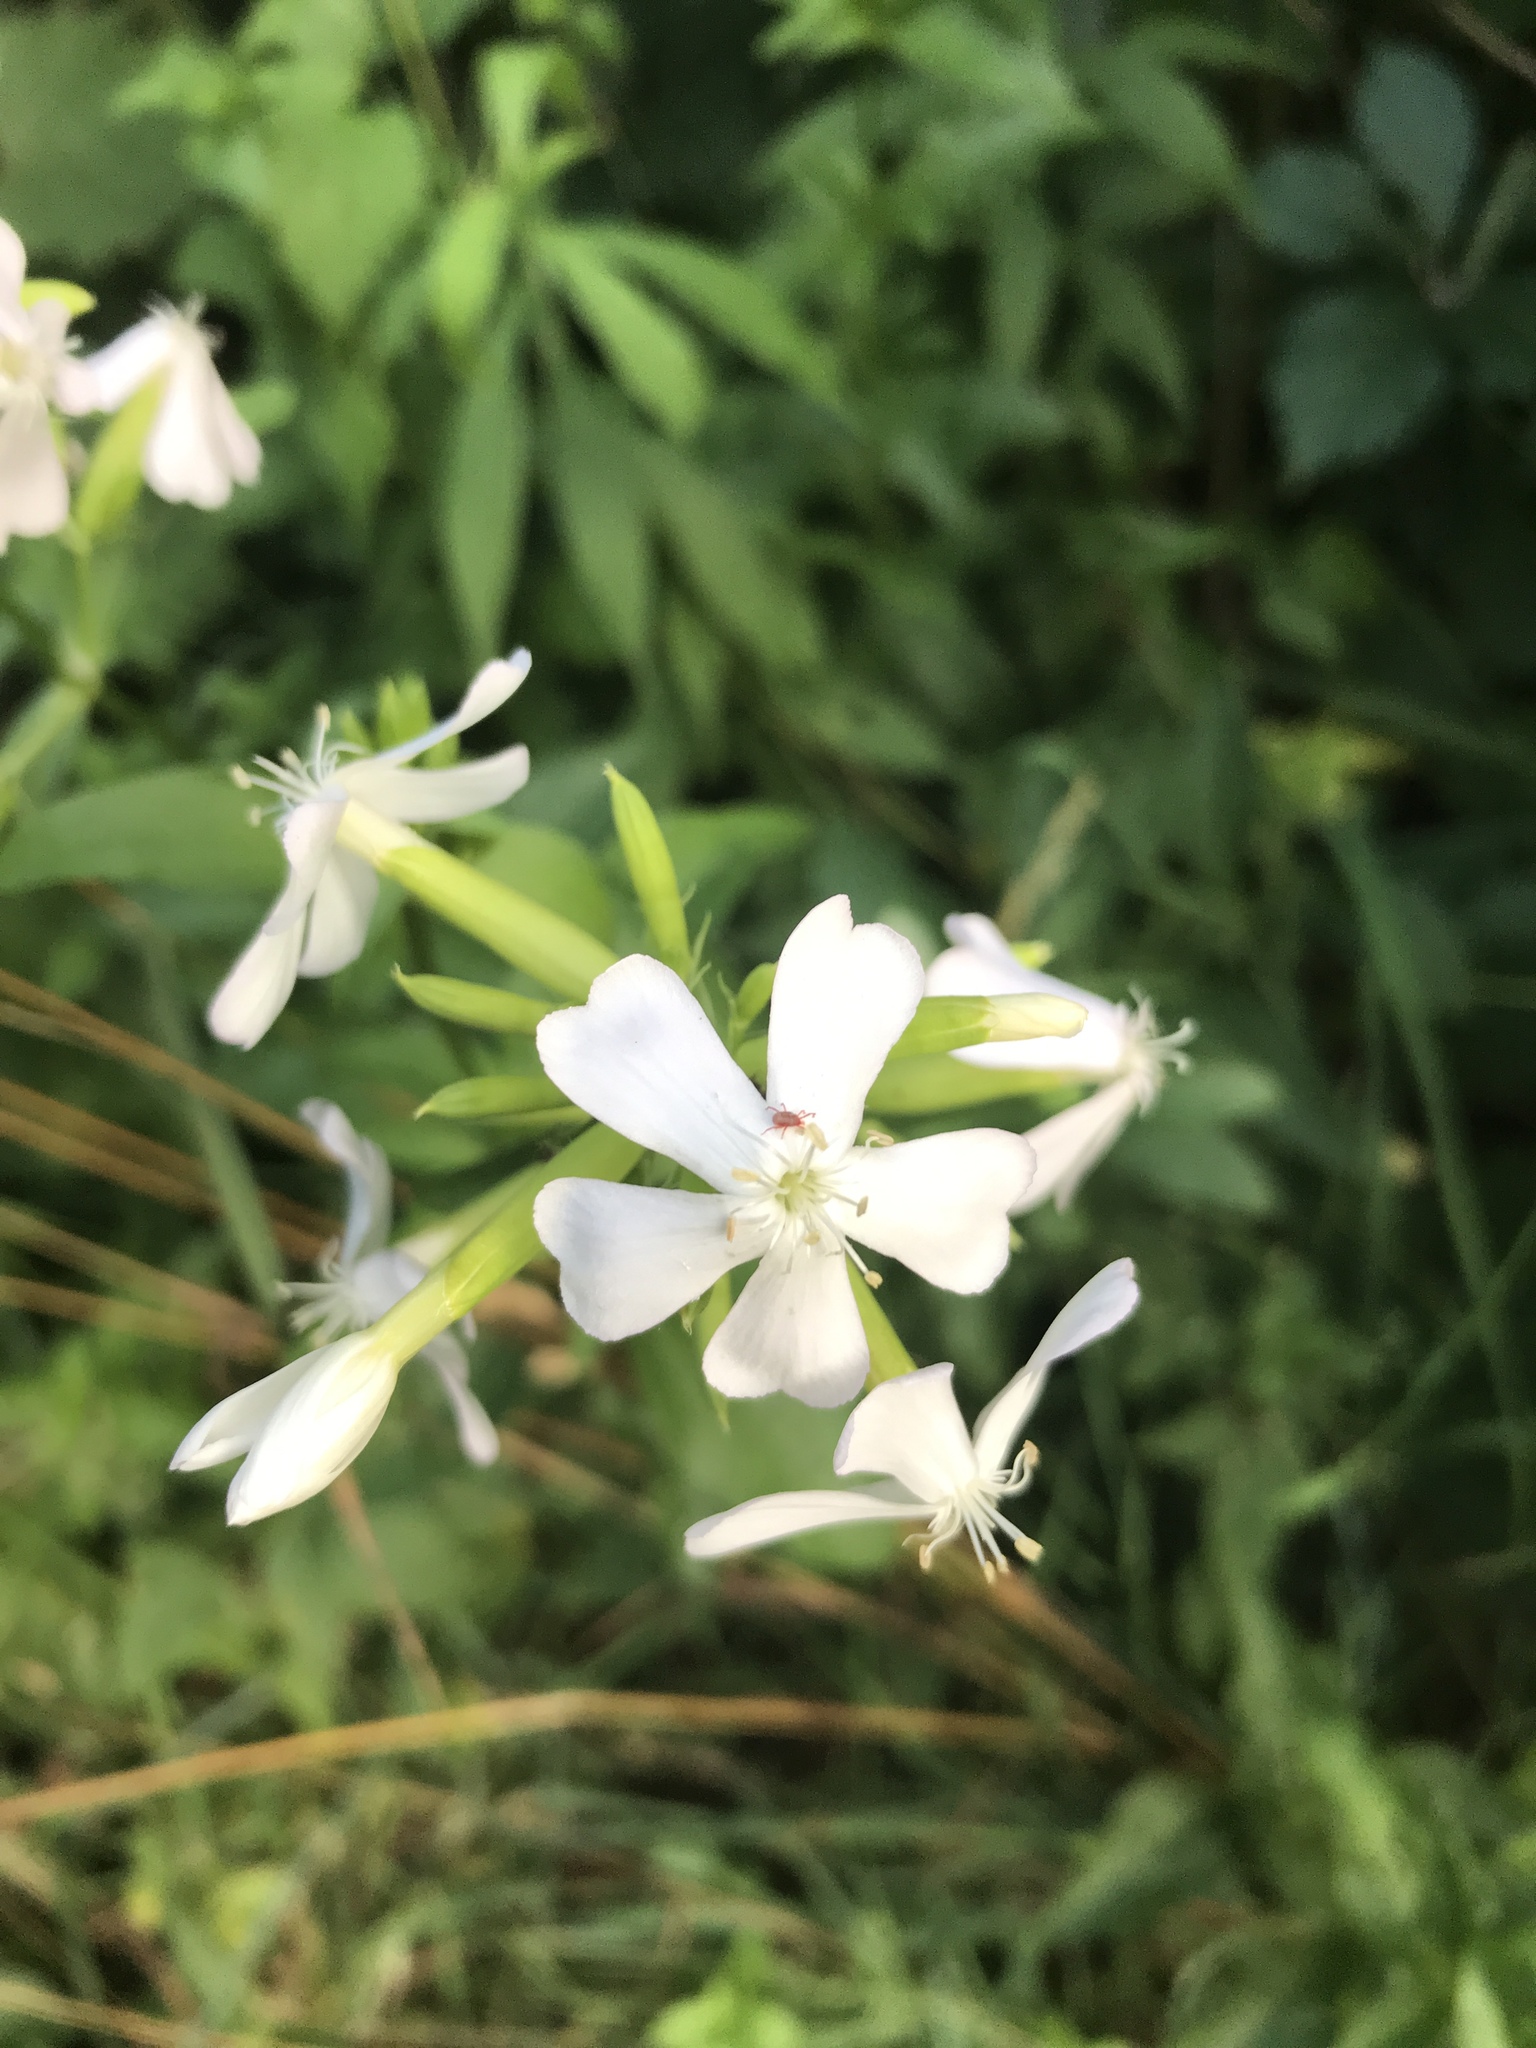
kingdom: Plantae
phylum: Tracheophyta
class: Magnoliopsida
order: Caryophyllales
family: Caryophyllaceae
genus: Saponaria
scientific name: Saponaria officinalis
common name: Soapwort
